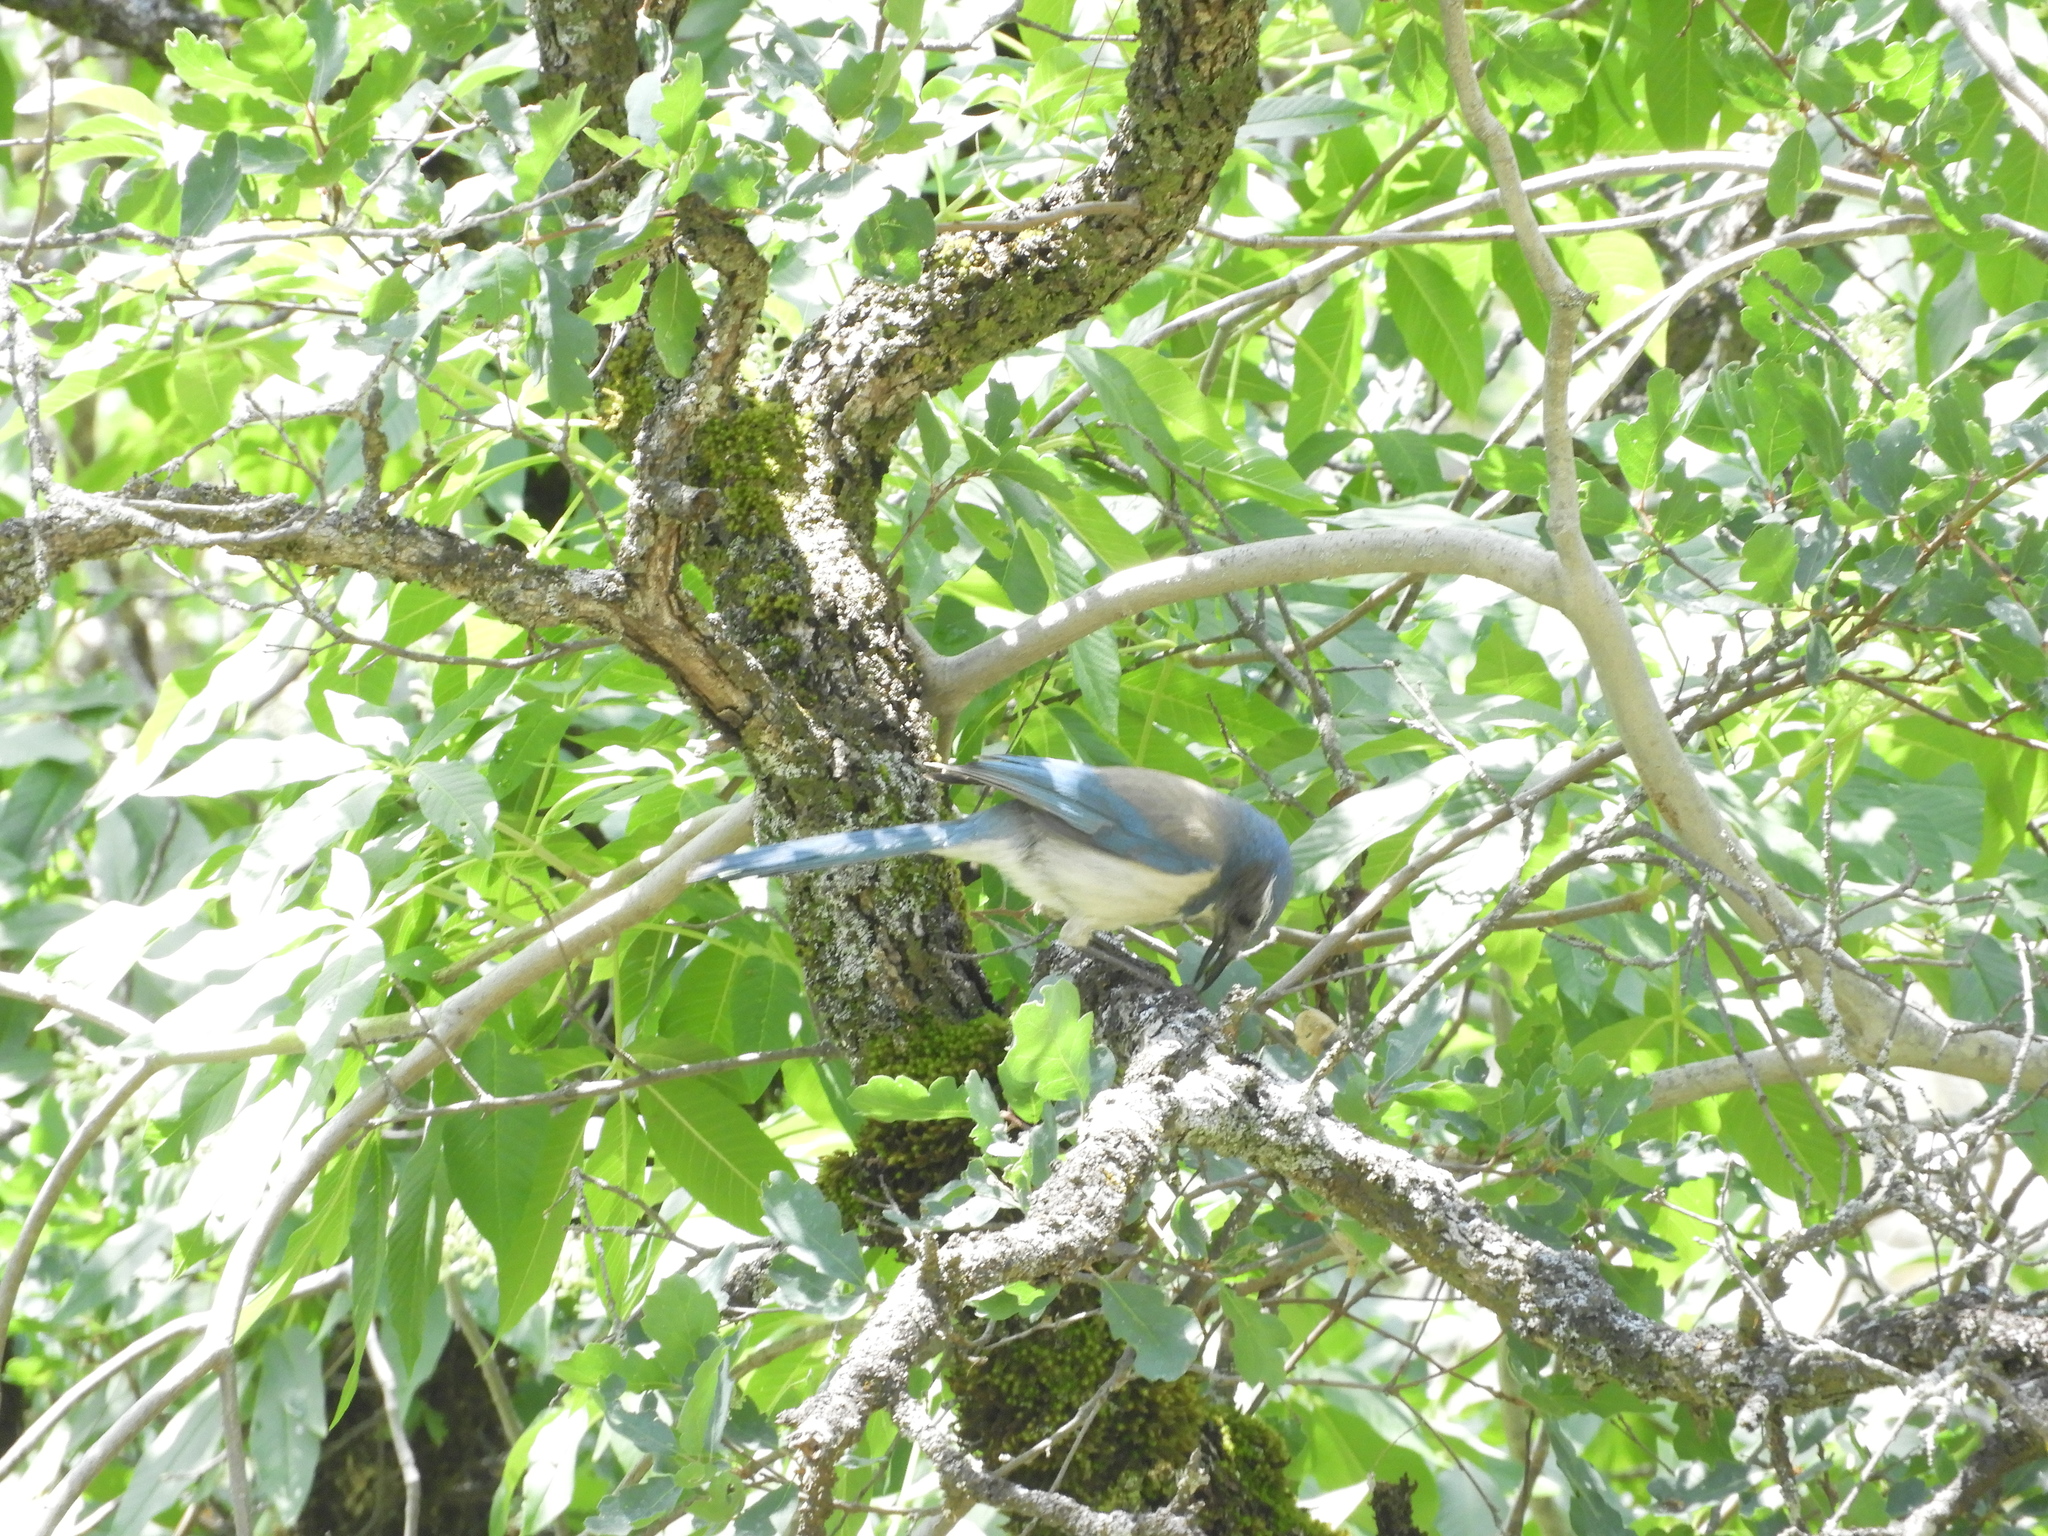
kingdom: Animalia
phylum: Chordata
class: Aves
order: Passeriformes
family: Corvidae
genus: Aphelocoma
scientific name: Aphelocoma californica
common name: California scrub-jay
